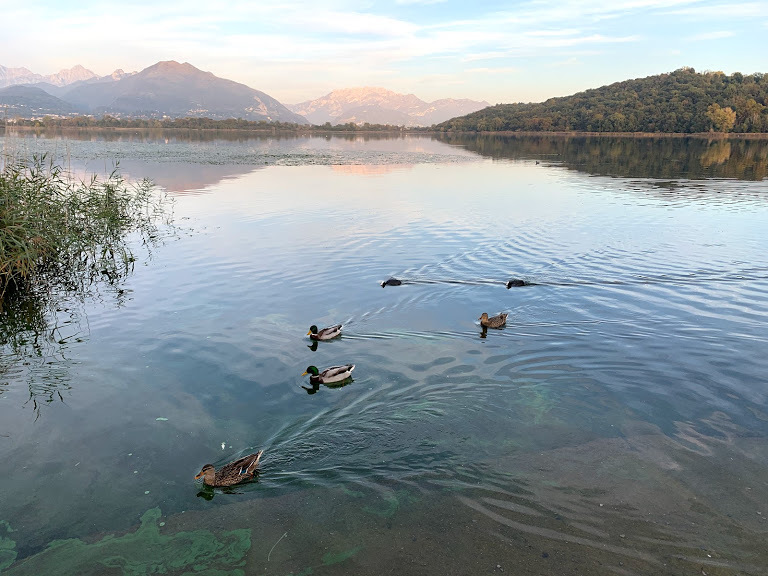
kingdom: Animalia
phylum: Chordata
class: Aves
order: Anseriformes
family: Anatidae
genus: Anas
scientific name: Anas platyrhynchos
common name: Mallard
